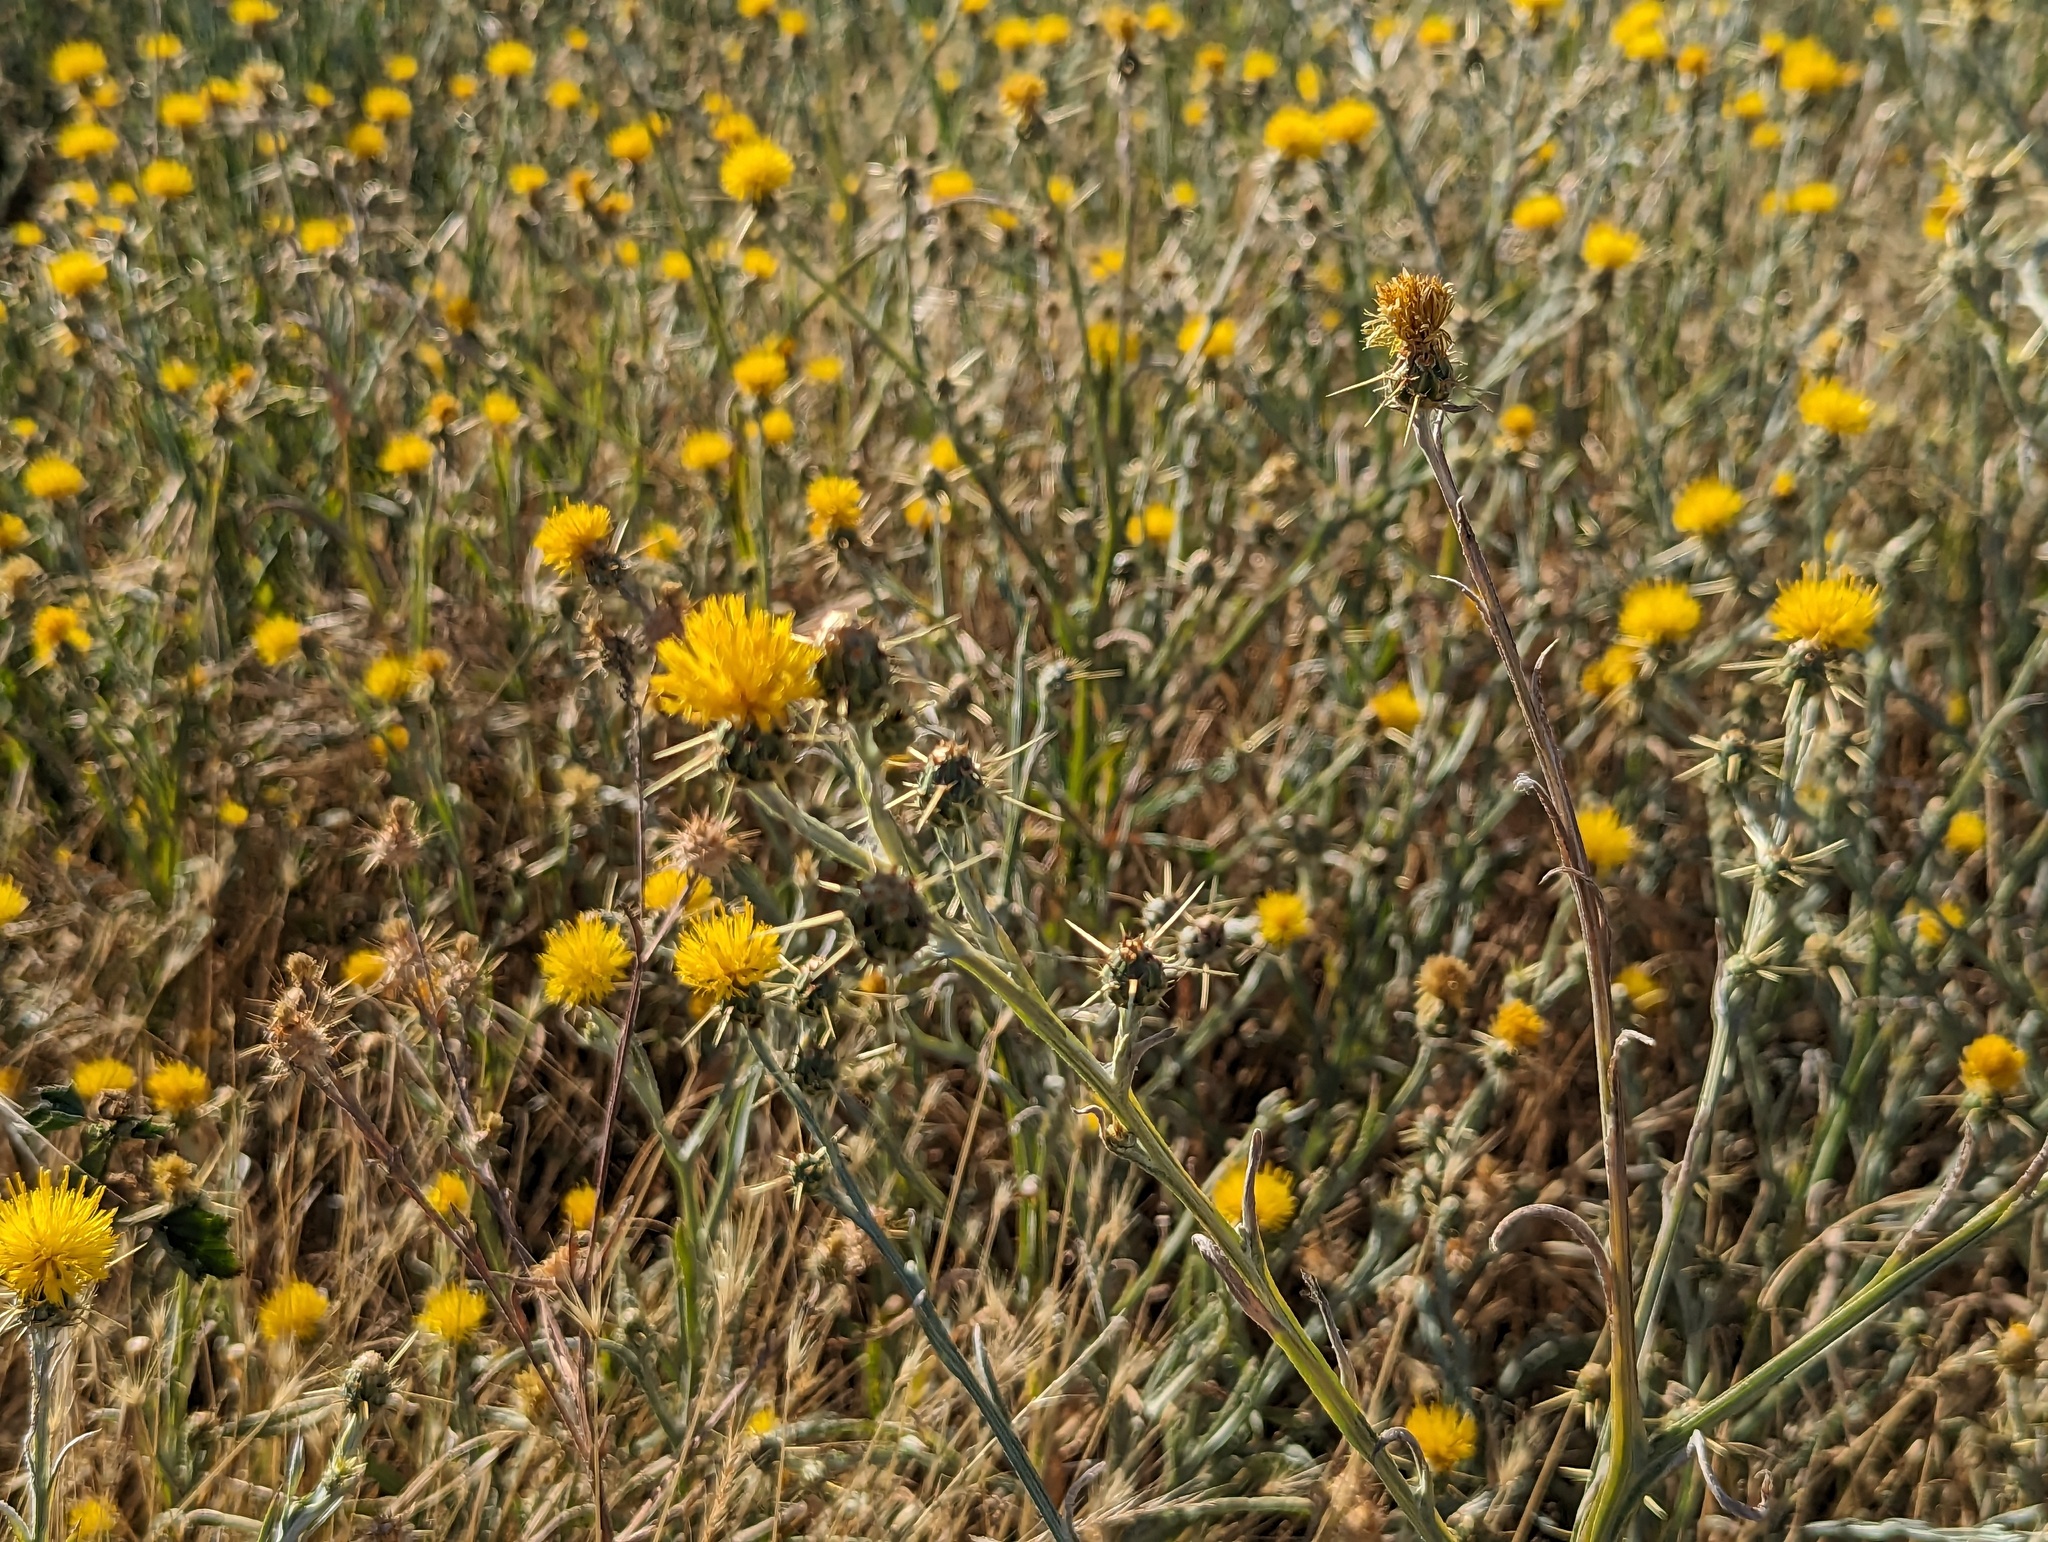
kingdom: Plantae
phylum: Tracheophyta
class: Magnoliopsida
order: Asterales
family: Asteraceae
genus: Centaurea
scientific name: Centaurea solstitialis
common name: Yellow star-thistle
